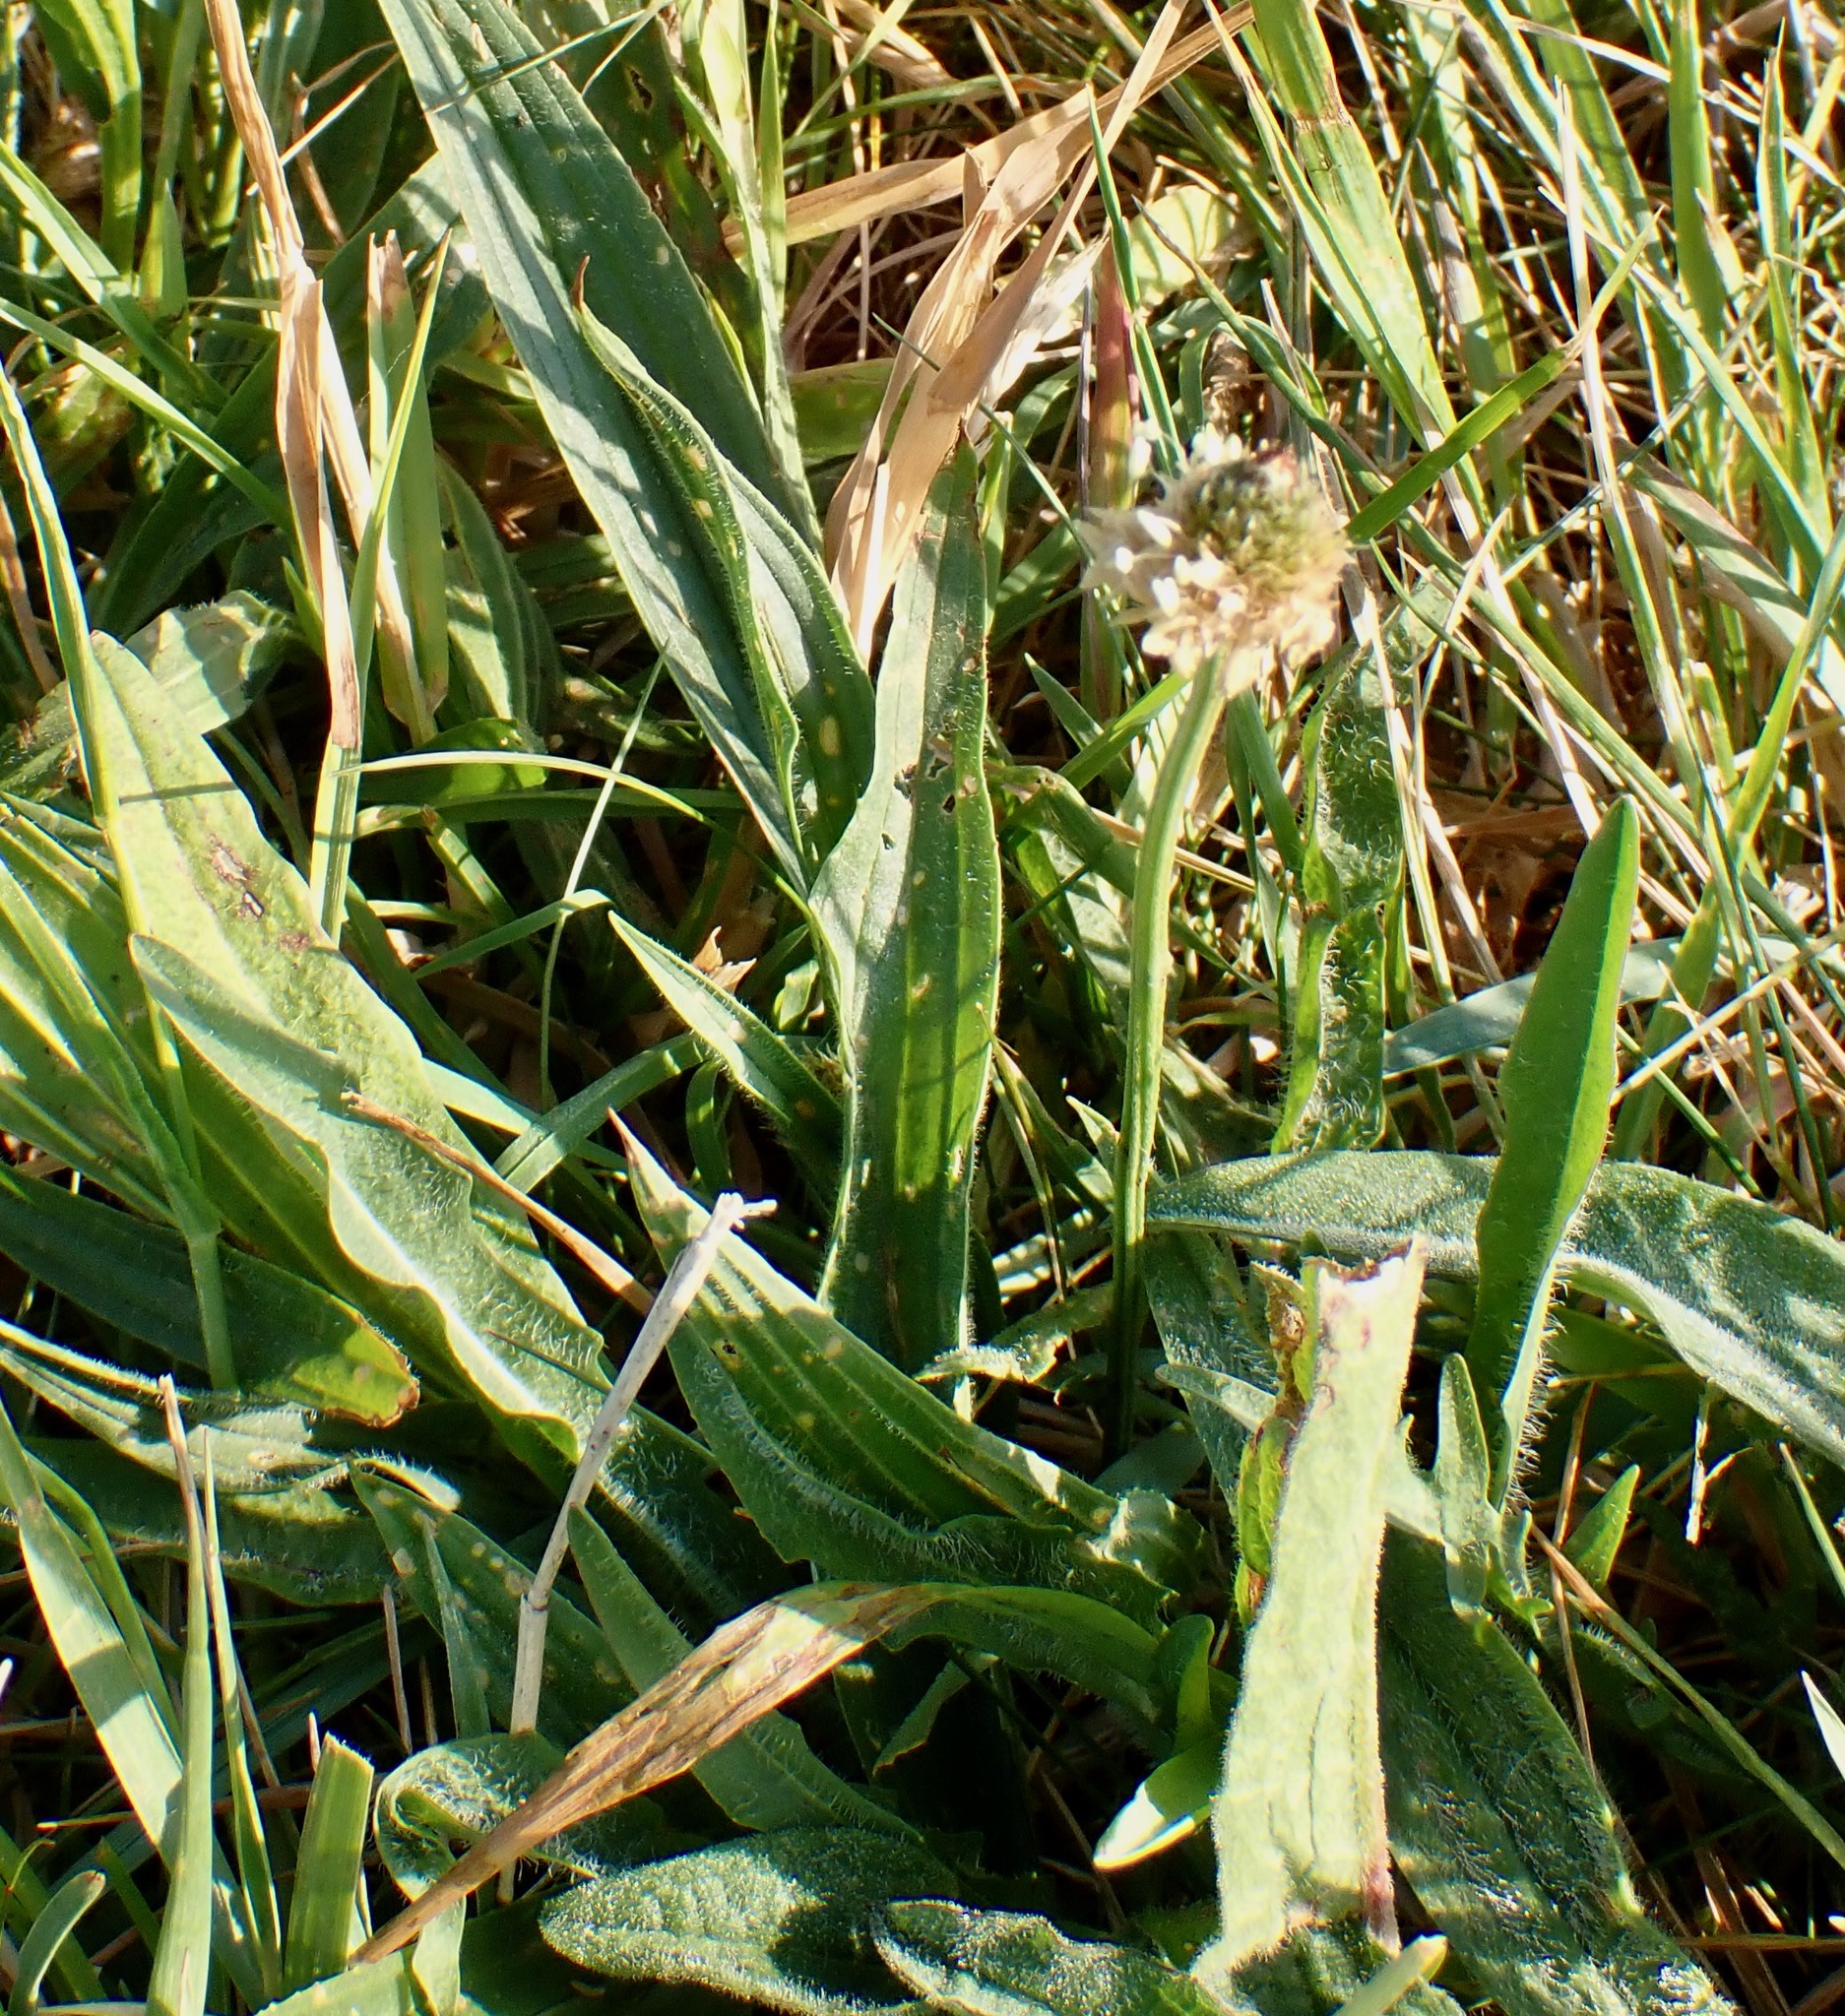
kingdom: Plantae
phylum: Tracheophyta
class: Magnoliopsida
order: Lamiales
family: Plantaginaceae
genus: Plantago
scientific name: Plantago lanceolata
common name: Ribwort plantain
